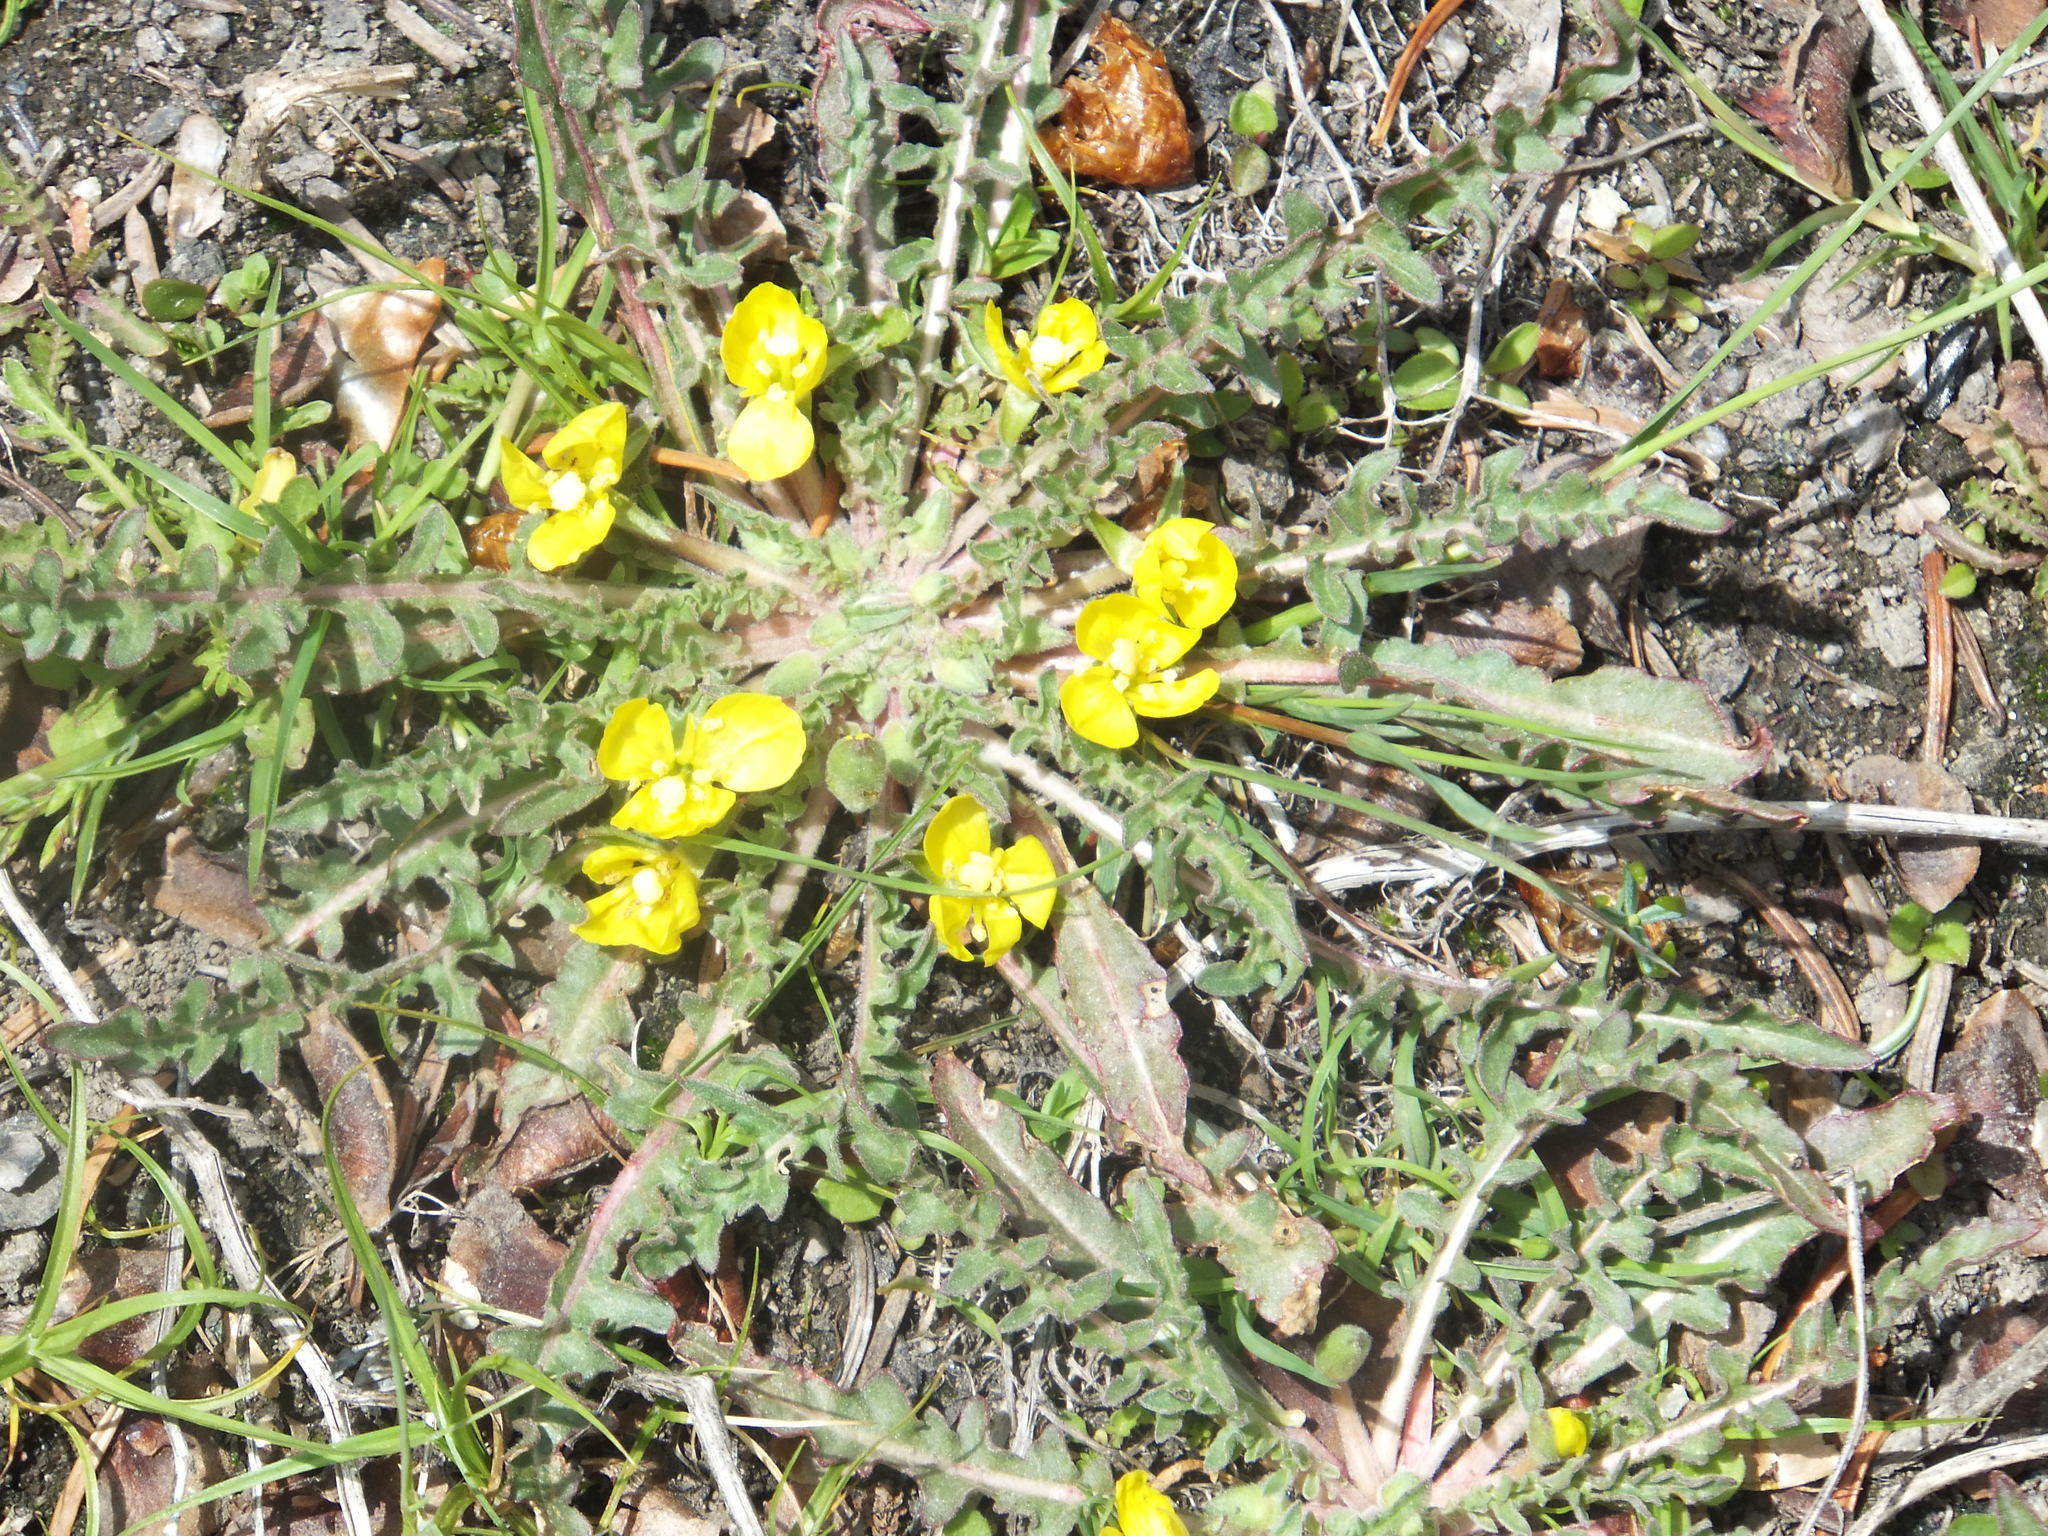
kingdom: Plantae
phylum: Tracheophyta
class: Magnoliopsida
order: Myrtales
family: Onagraceae
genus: Taraxia
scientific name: Taraxia breviflora
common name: Few-flowered evening primrose
